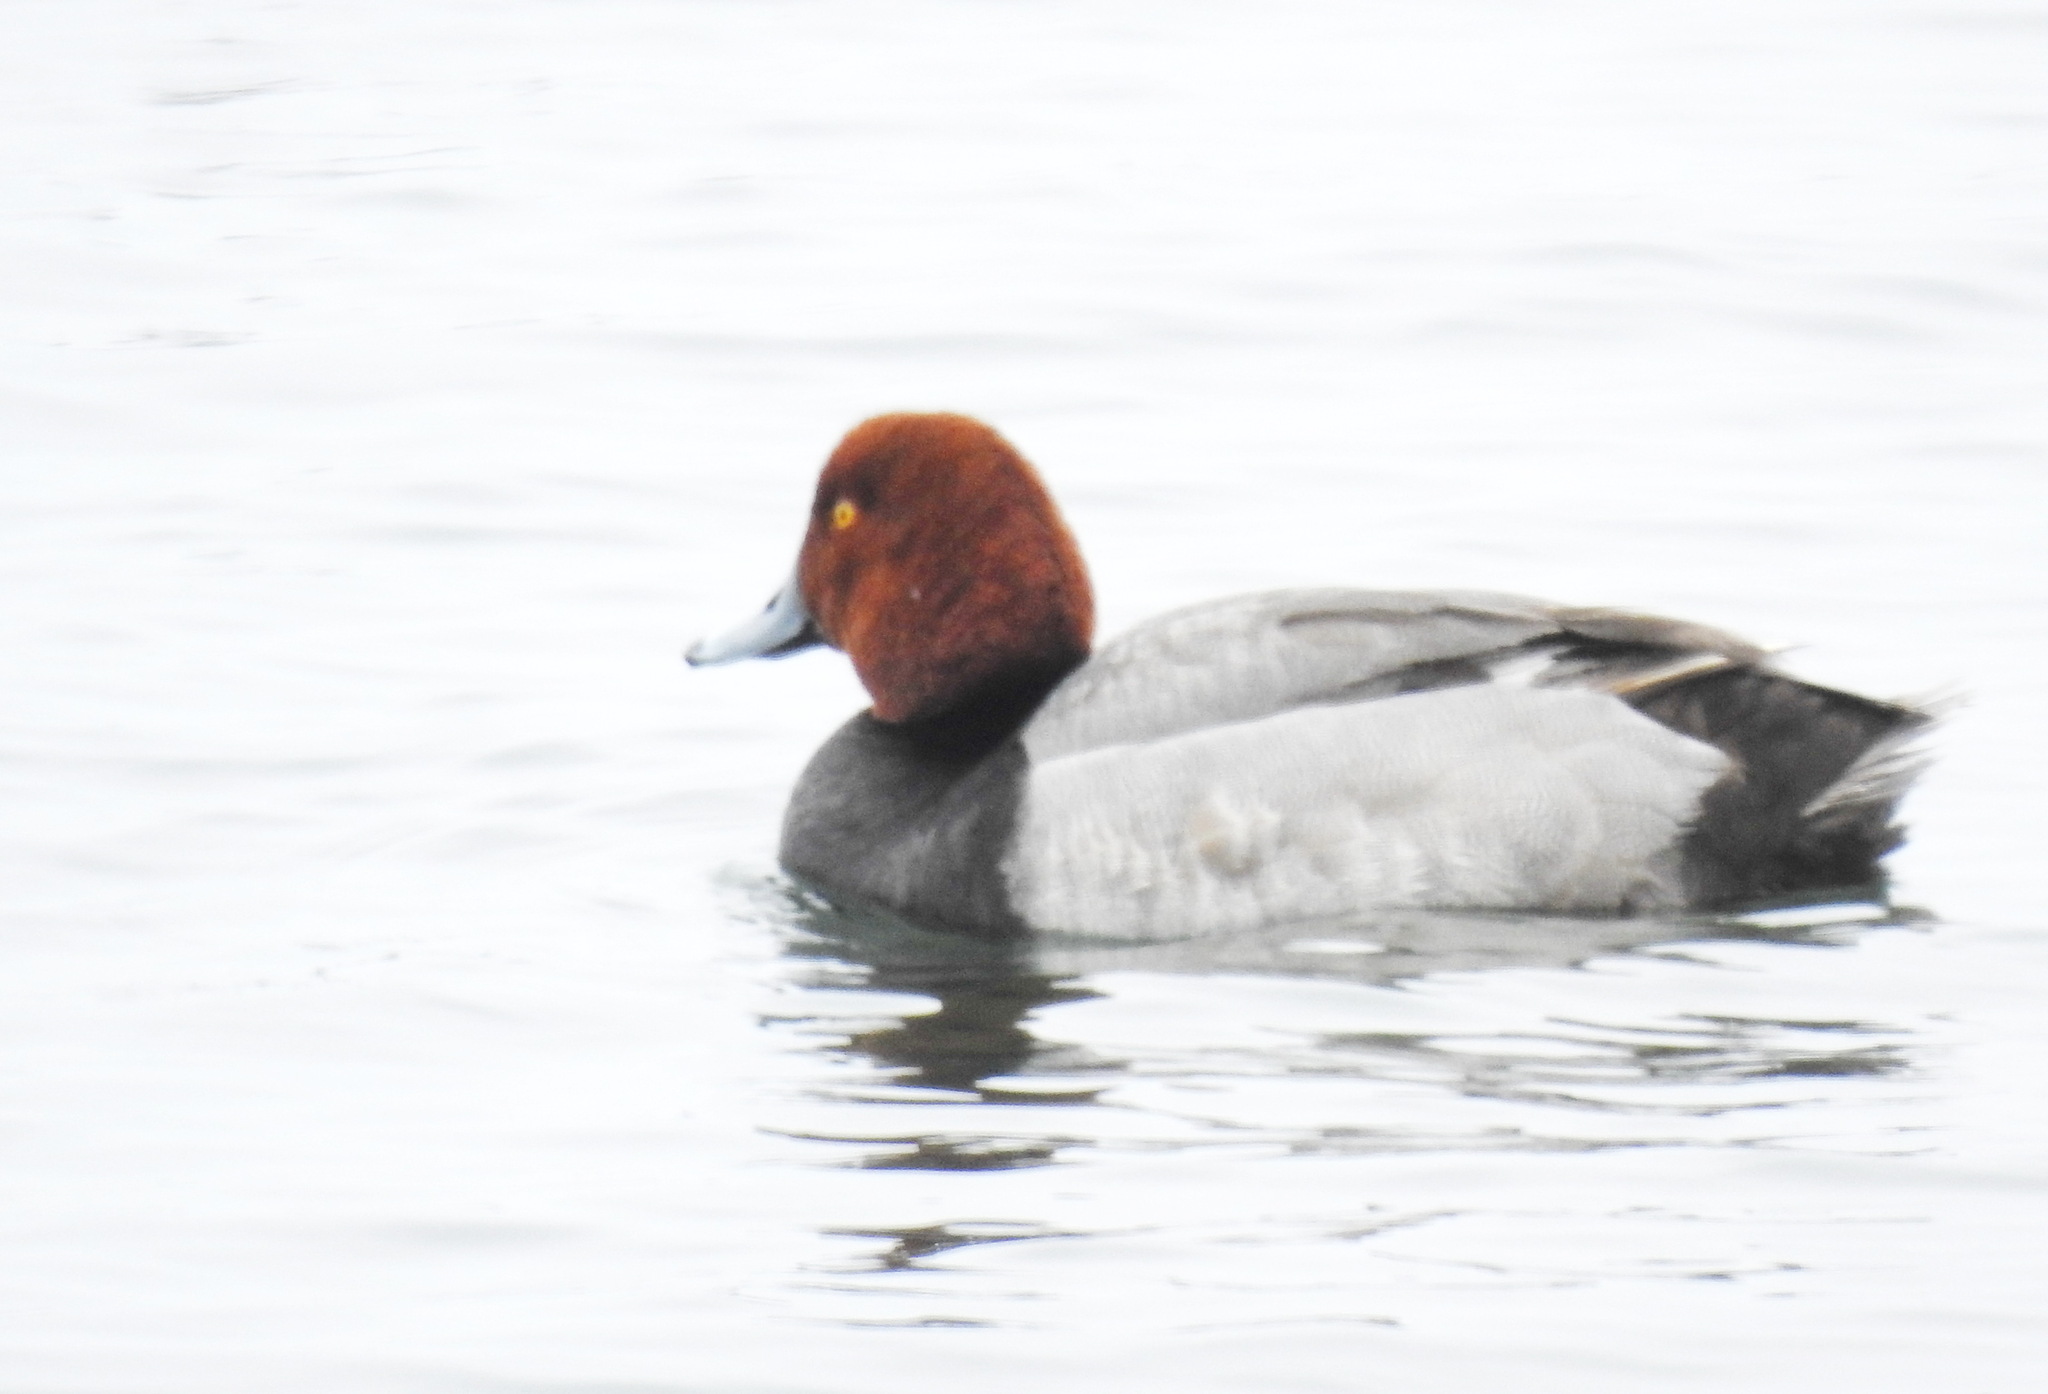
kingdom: Animalia
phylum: Chordata
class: Aves
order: Anseriformes
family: Anatidae
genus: Aythya
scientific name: Aythya americana
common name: Redhead
